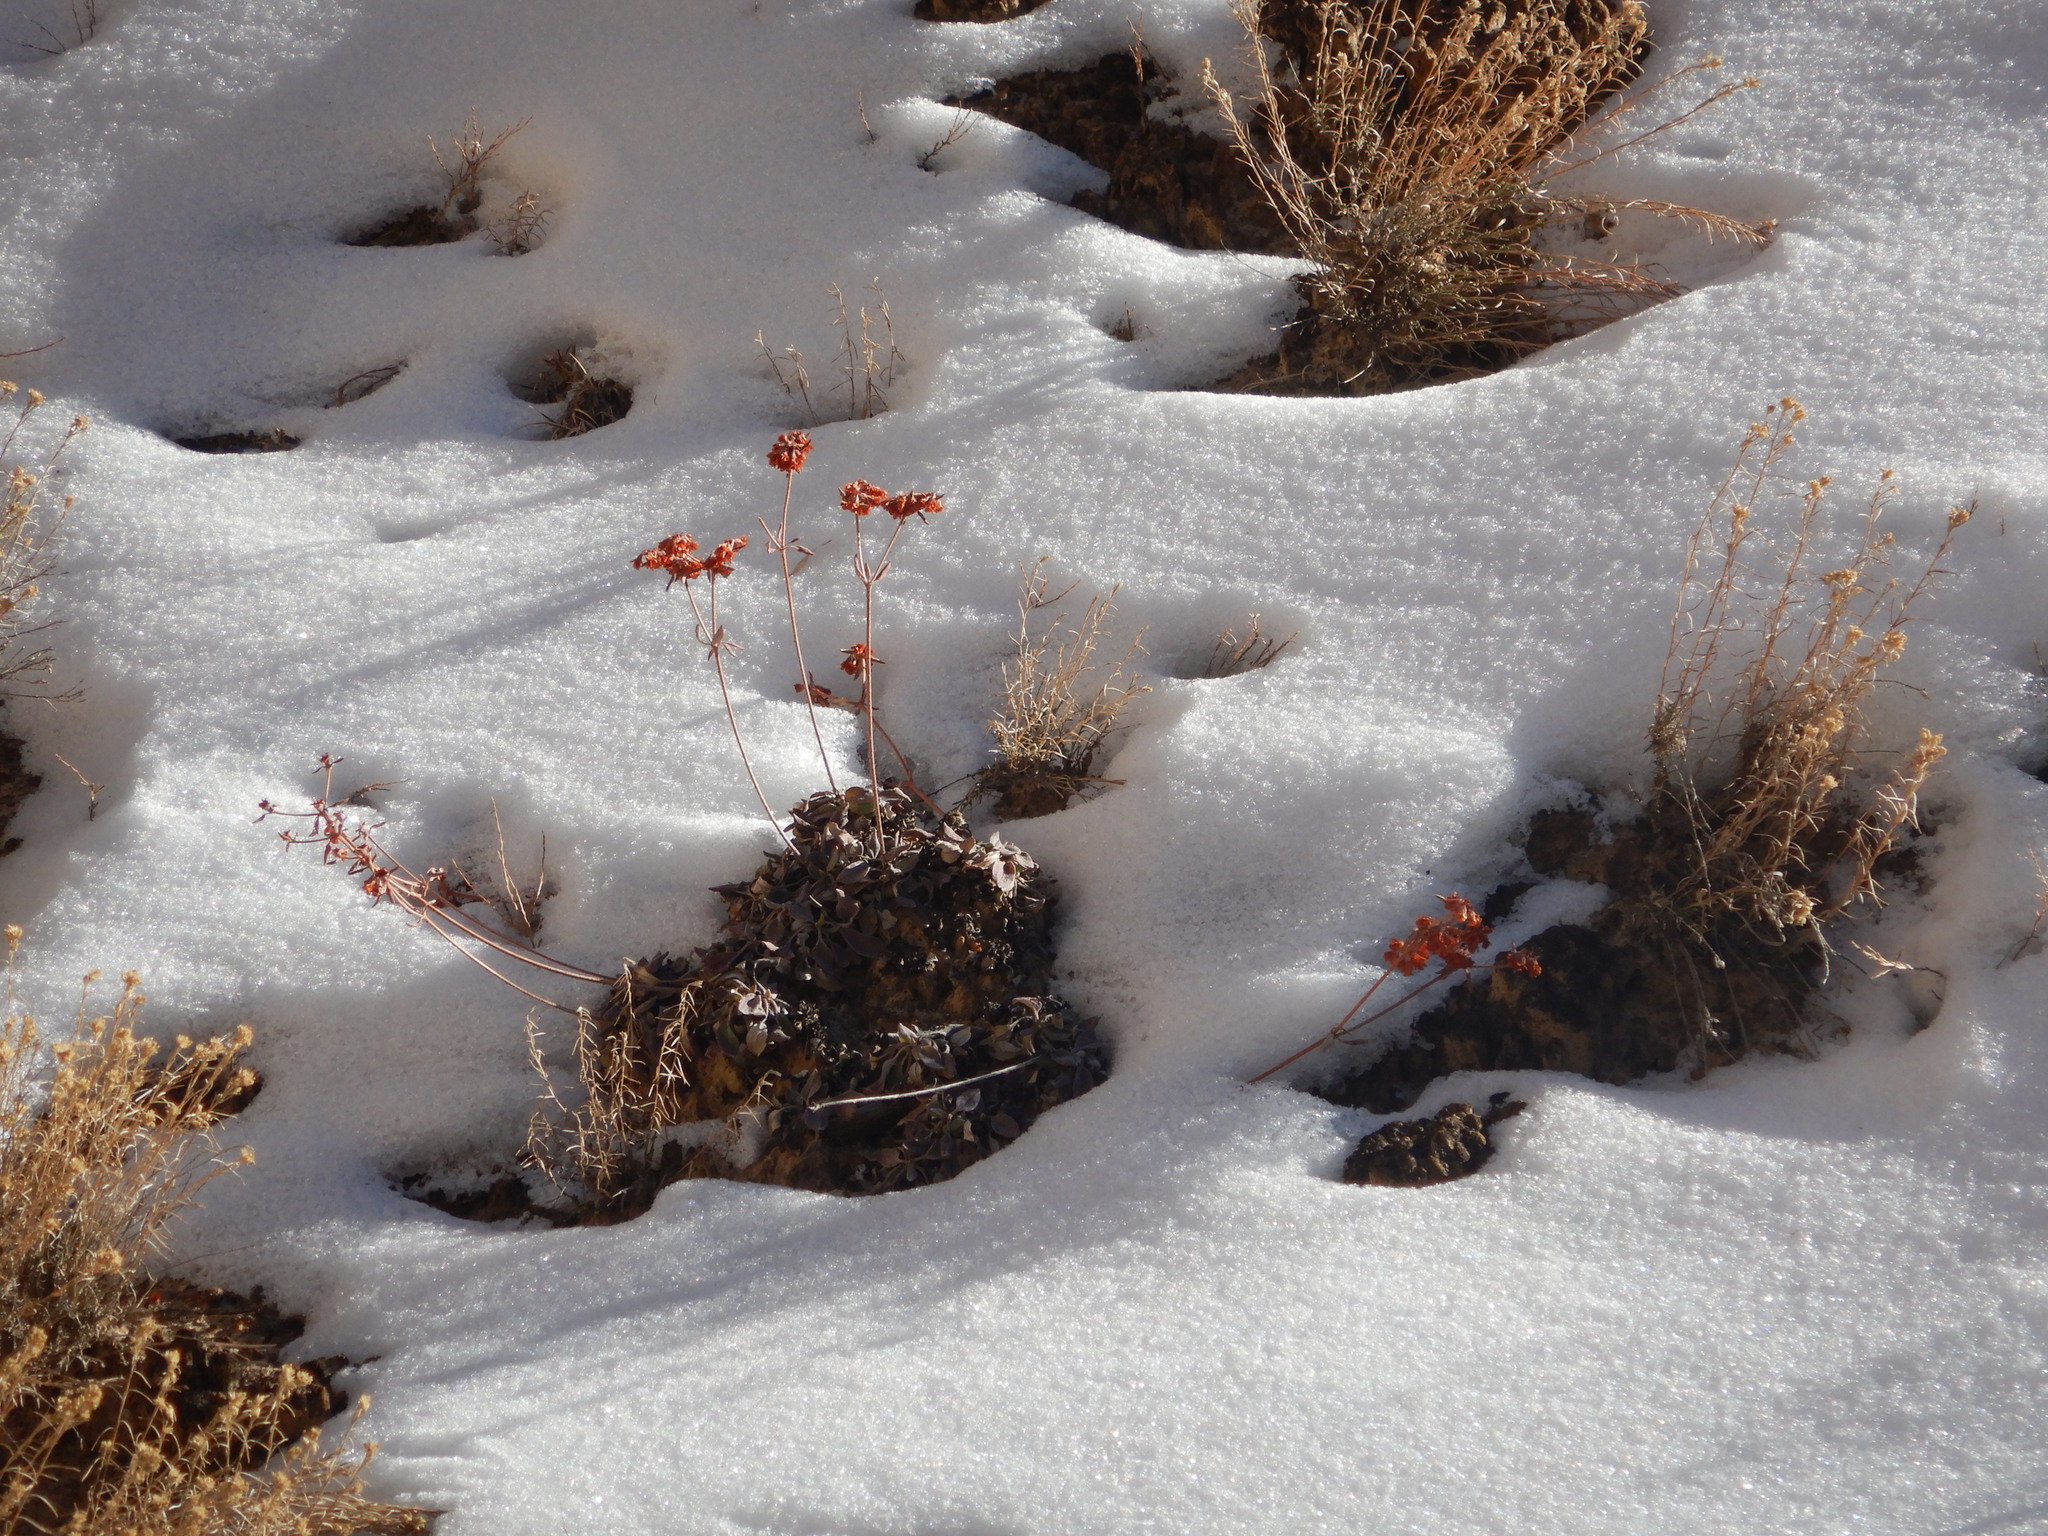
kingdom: Plantae
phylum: Tracheophyta
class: Magnoliopsida
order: Caryophyllales
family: Polygonaceae
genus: Eriogonum
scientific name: Eriogonum jamesii
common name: Antelope-sage
